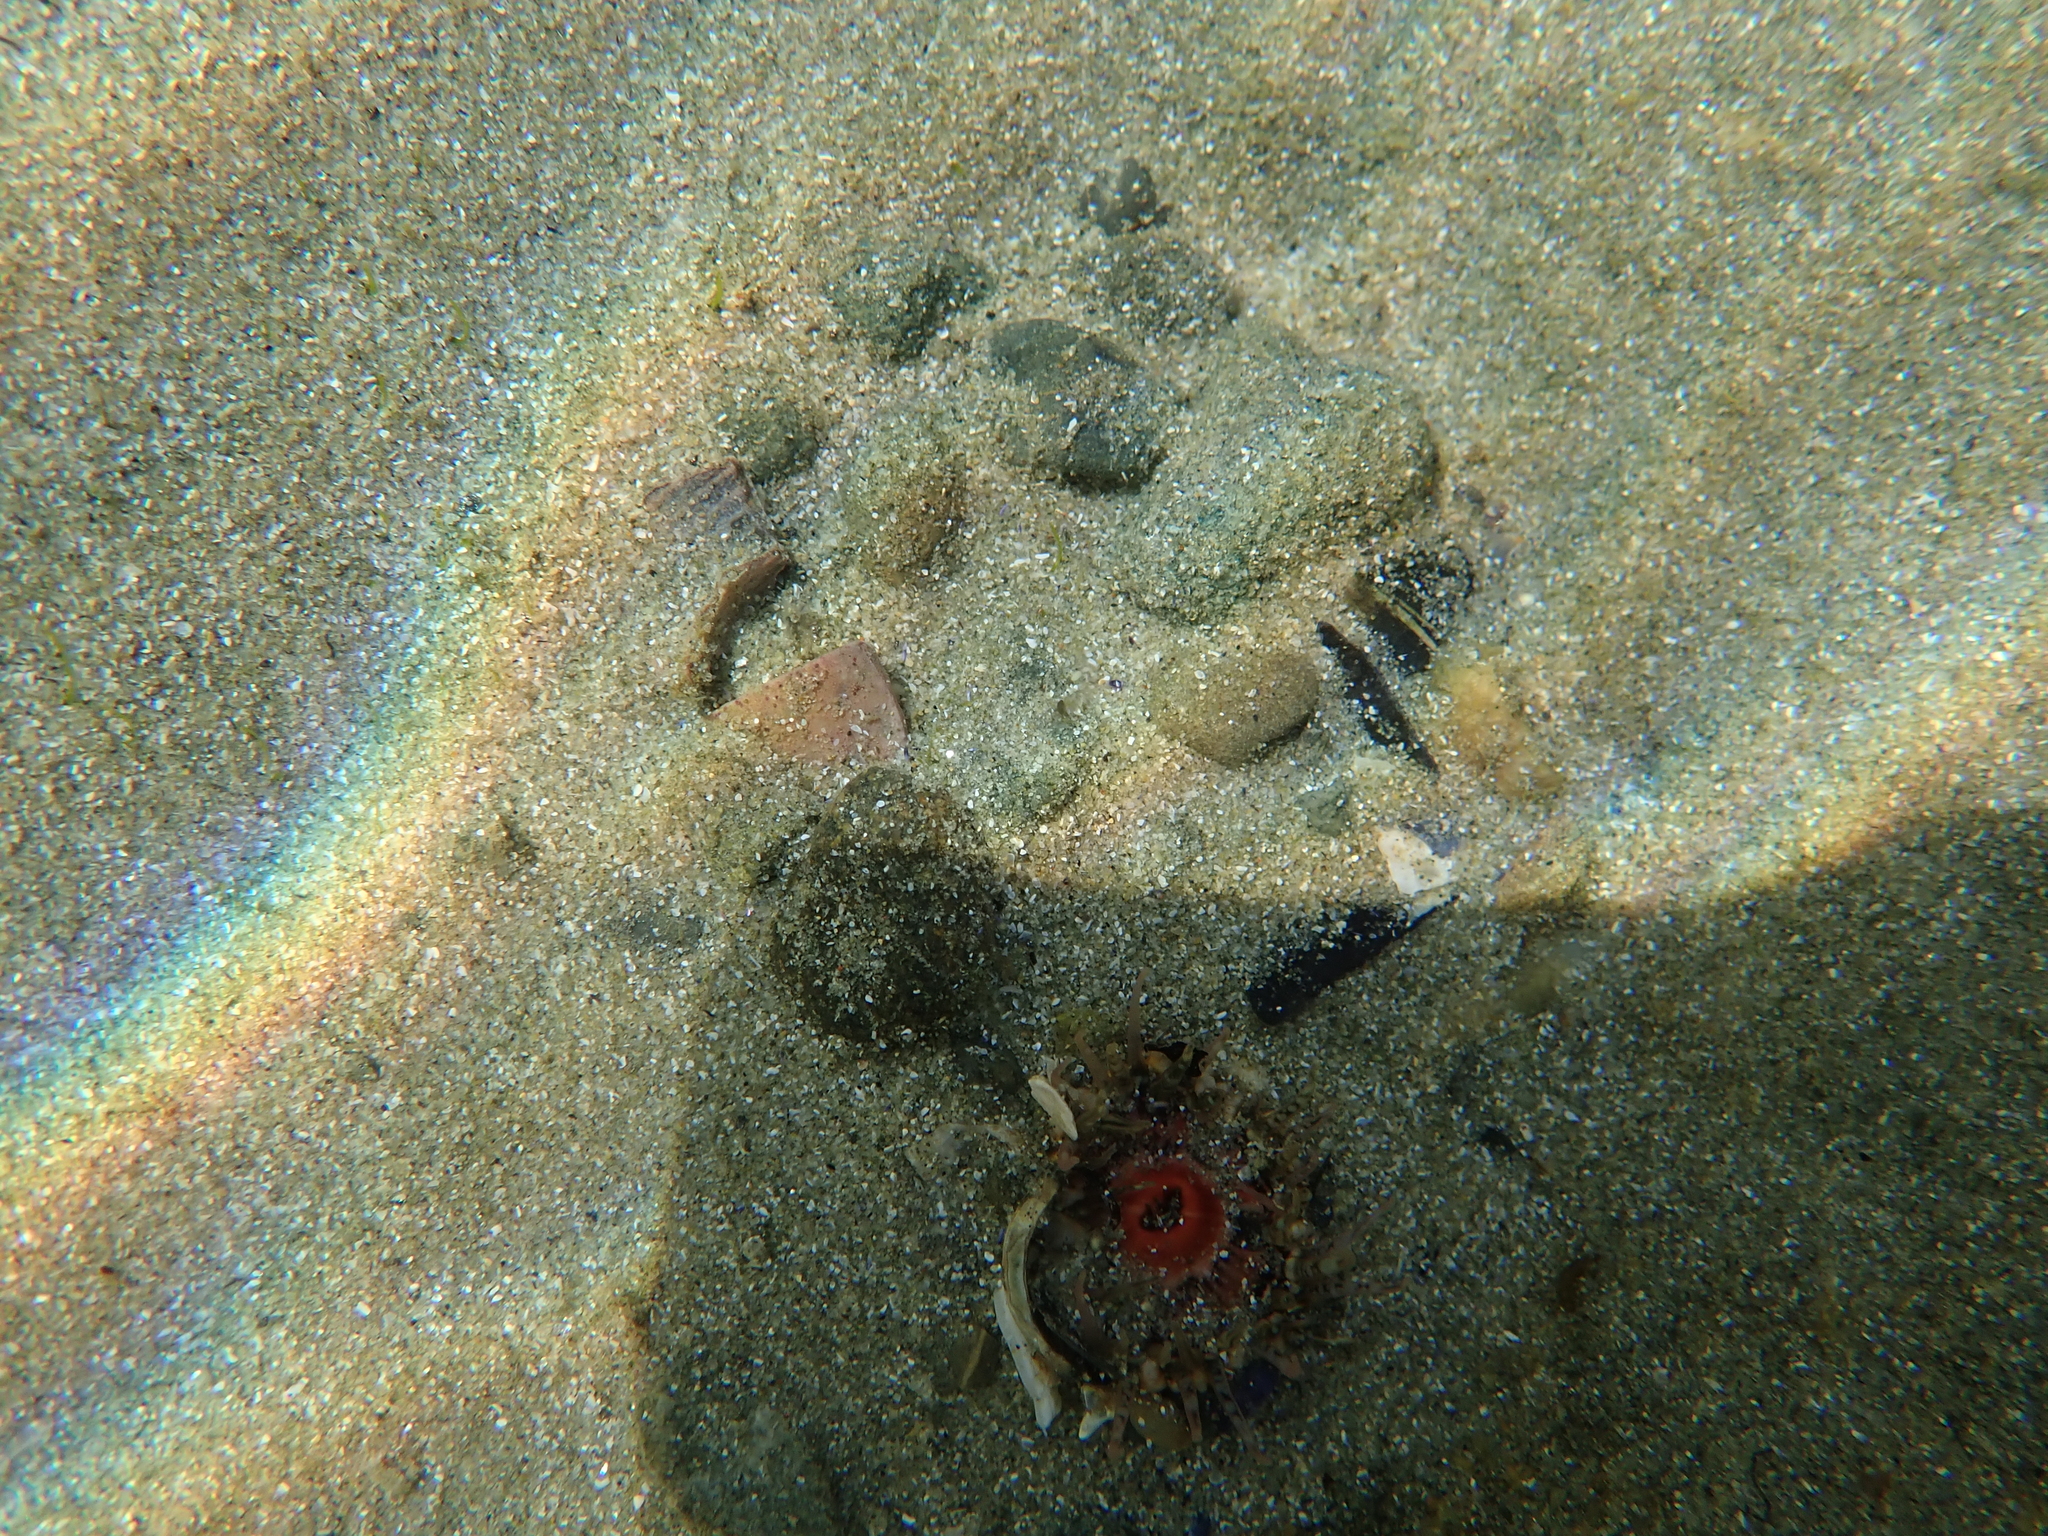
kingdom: Animalia
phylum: Cnidaria
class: Anthozoa
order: Actiniaria
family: Actiniidae
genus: Oulactis
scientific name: Oulactis muscosa
